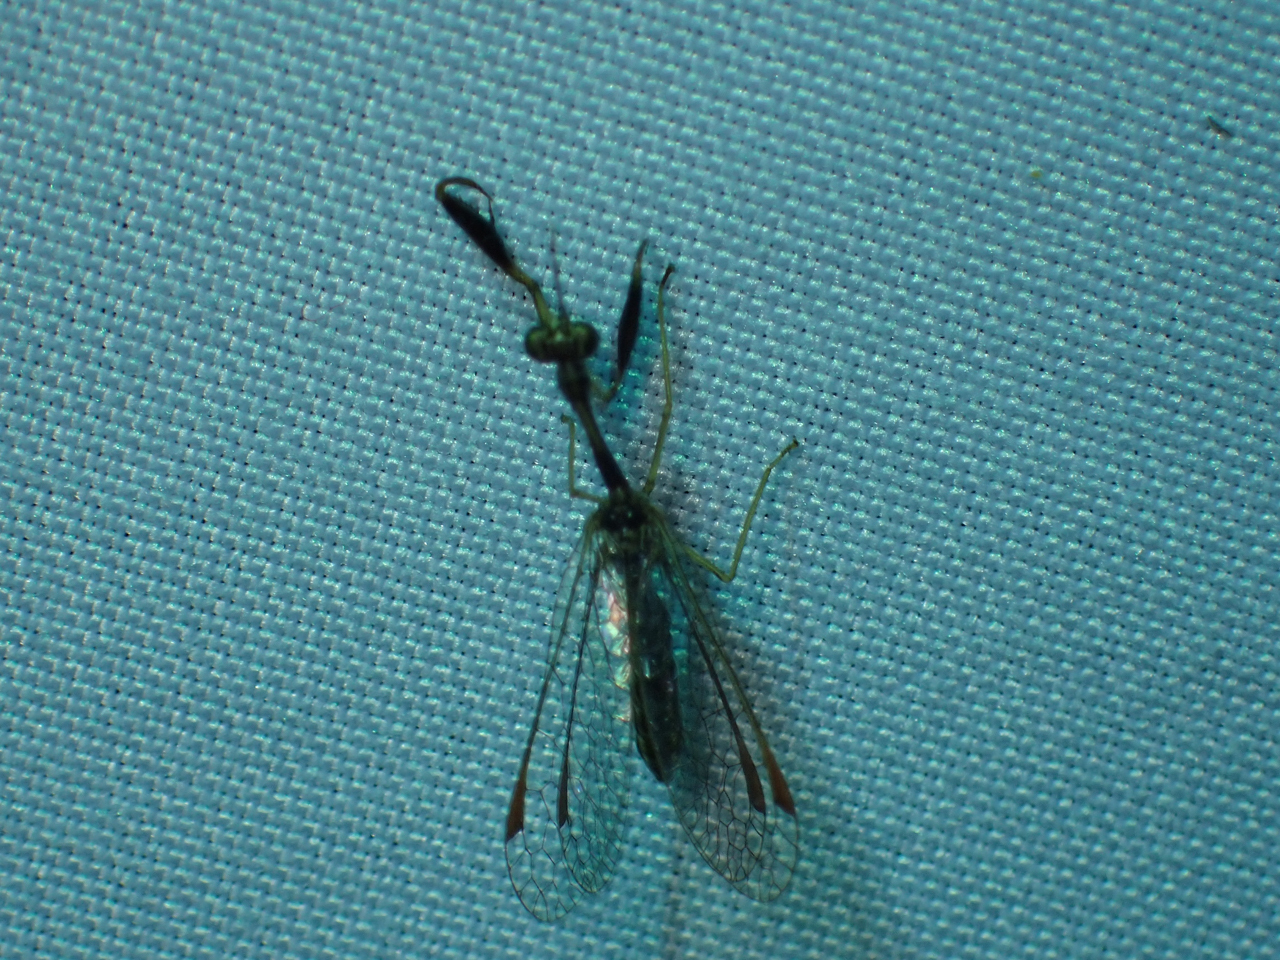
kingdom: Animalia
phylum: Arthropoda
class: Insecta
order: Neuroptera
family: Mantispidae
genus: Dicromantispa
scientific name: Dicromantispa sayi
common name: Say's mantidfly
